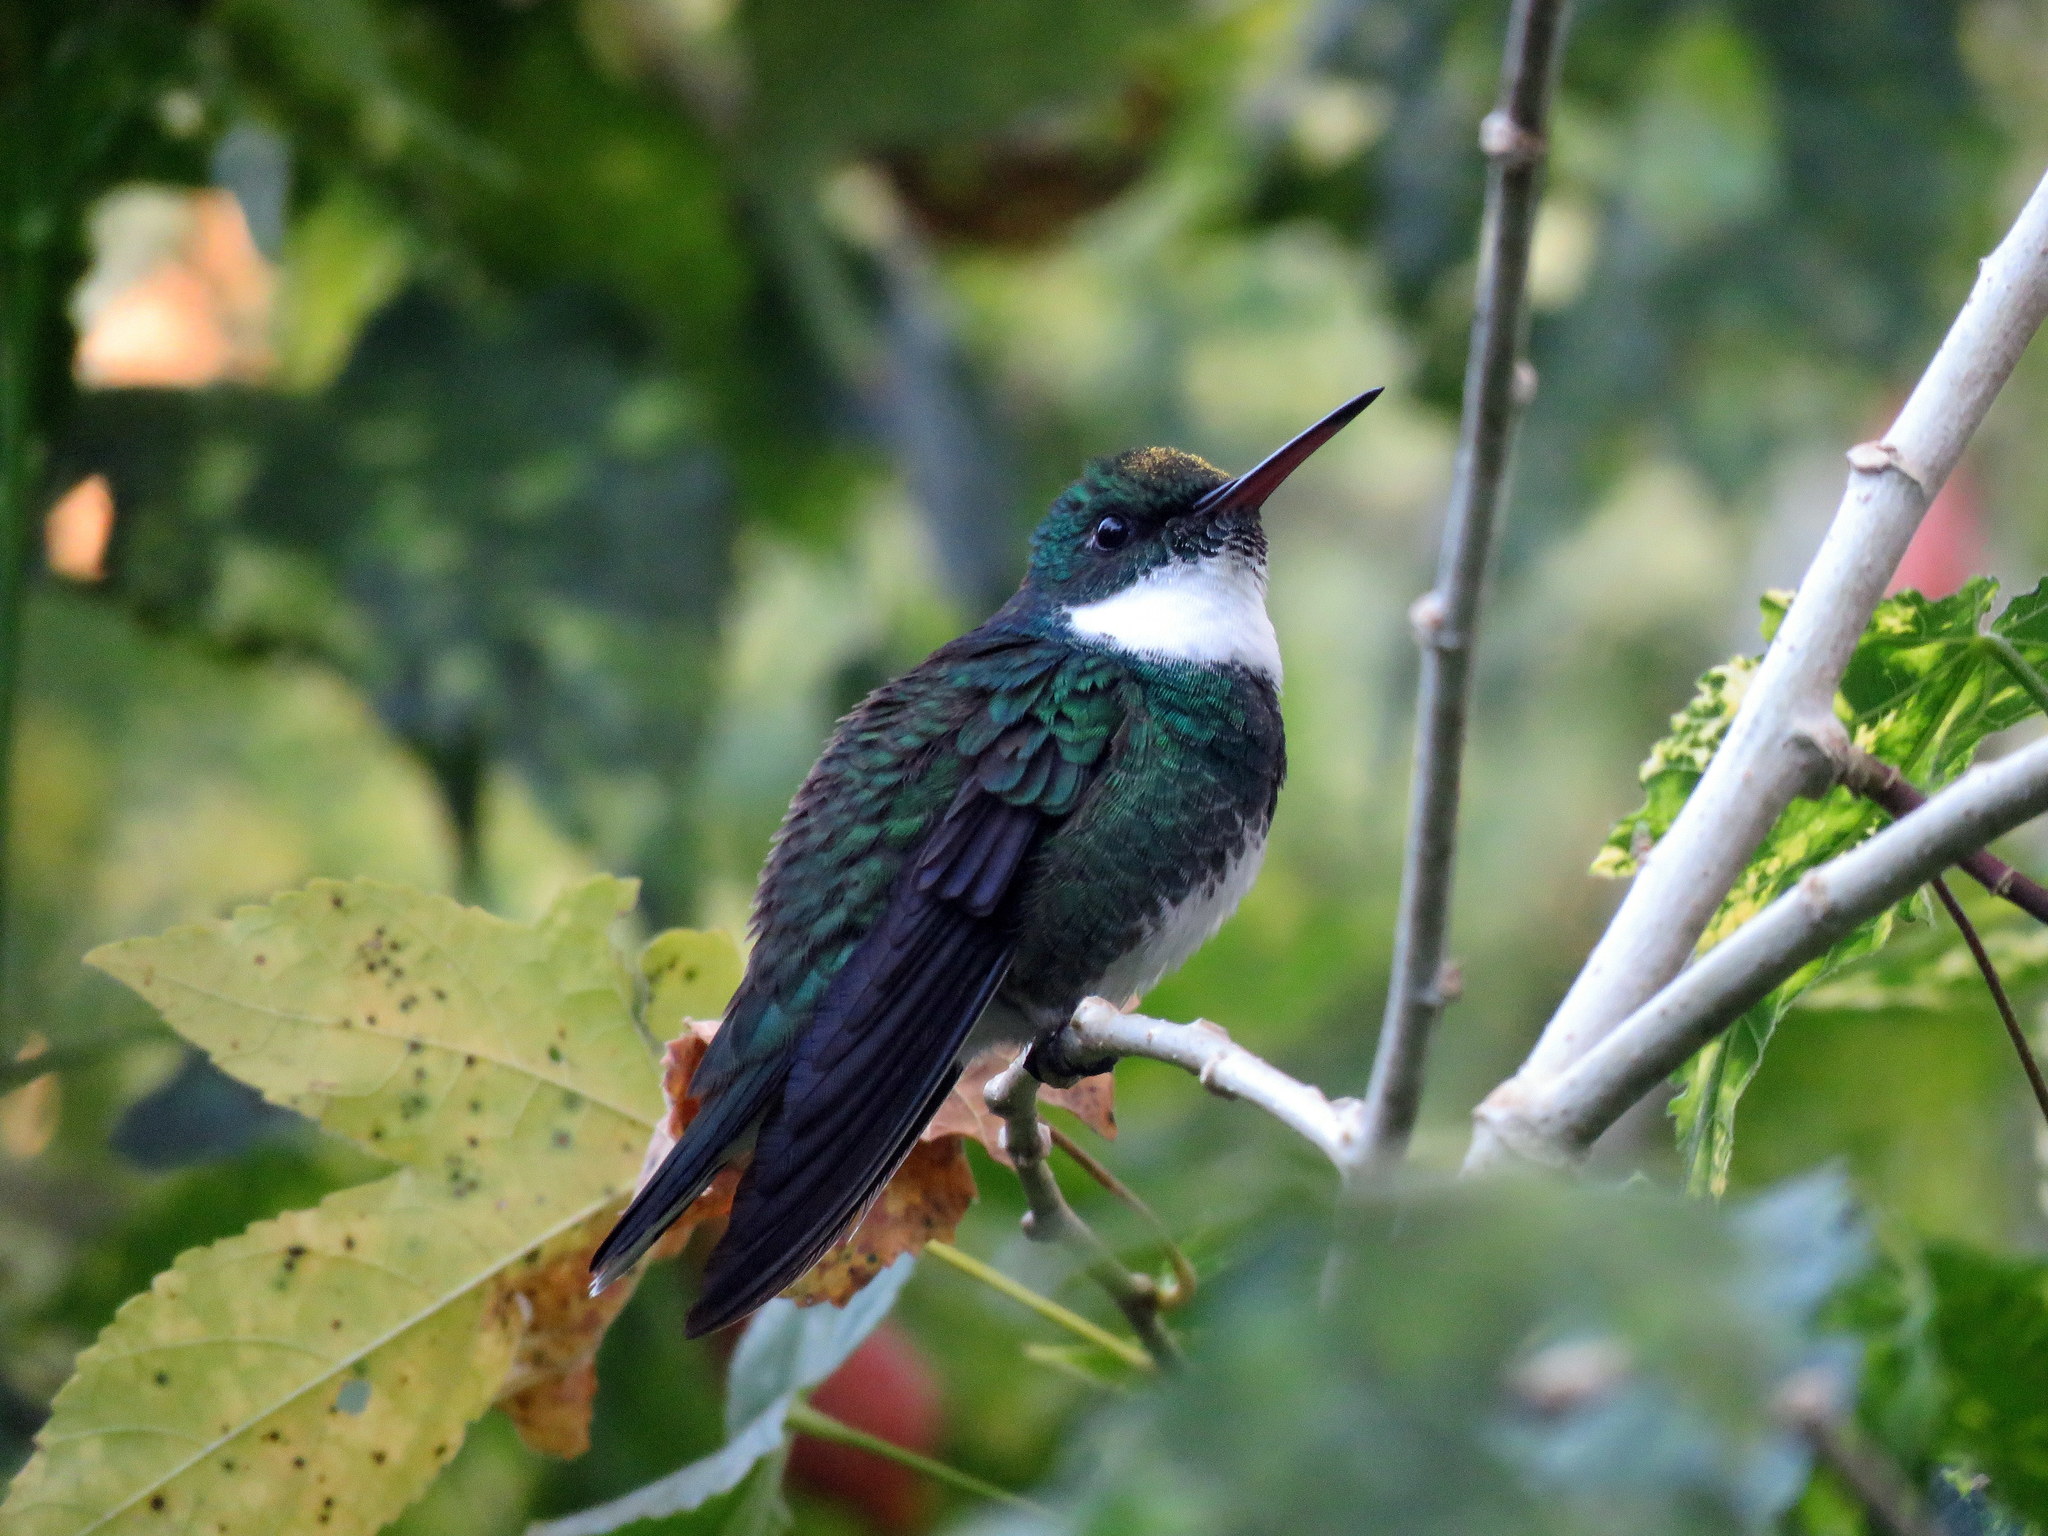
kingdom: Animalia
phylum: Chordata
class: Aves
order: Apodiformes
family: Trochilidae
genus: Leucochloris
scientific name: Leucochloris albicollis
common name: White-throated hummingbird
